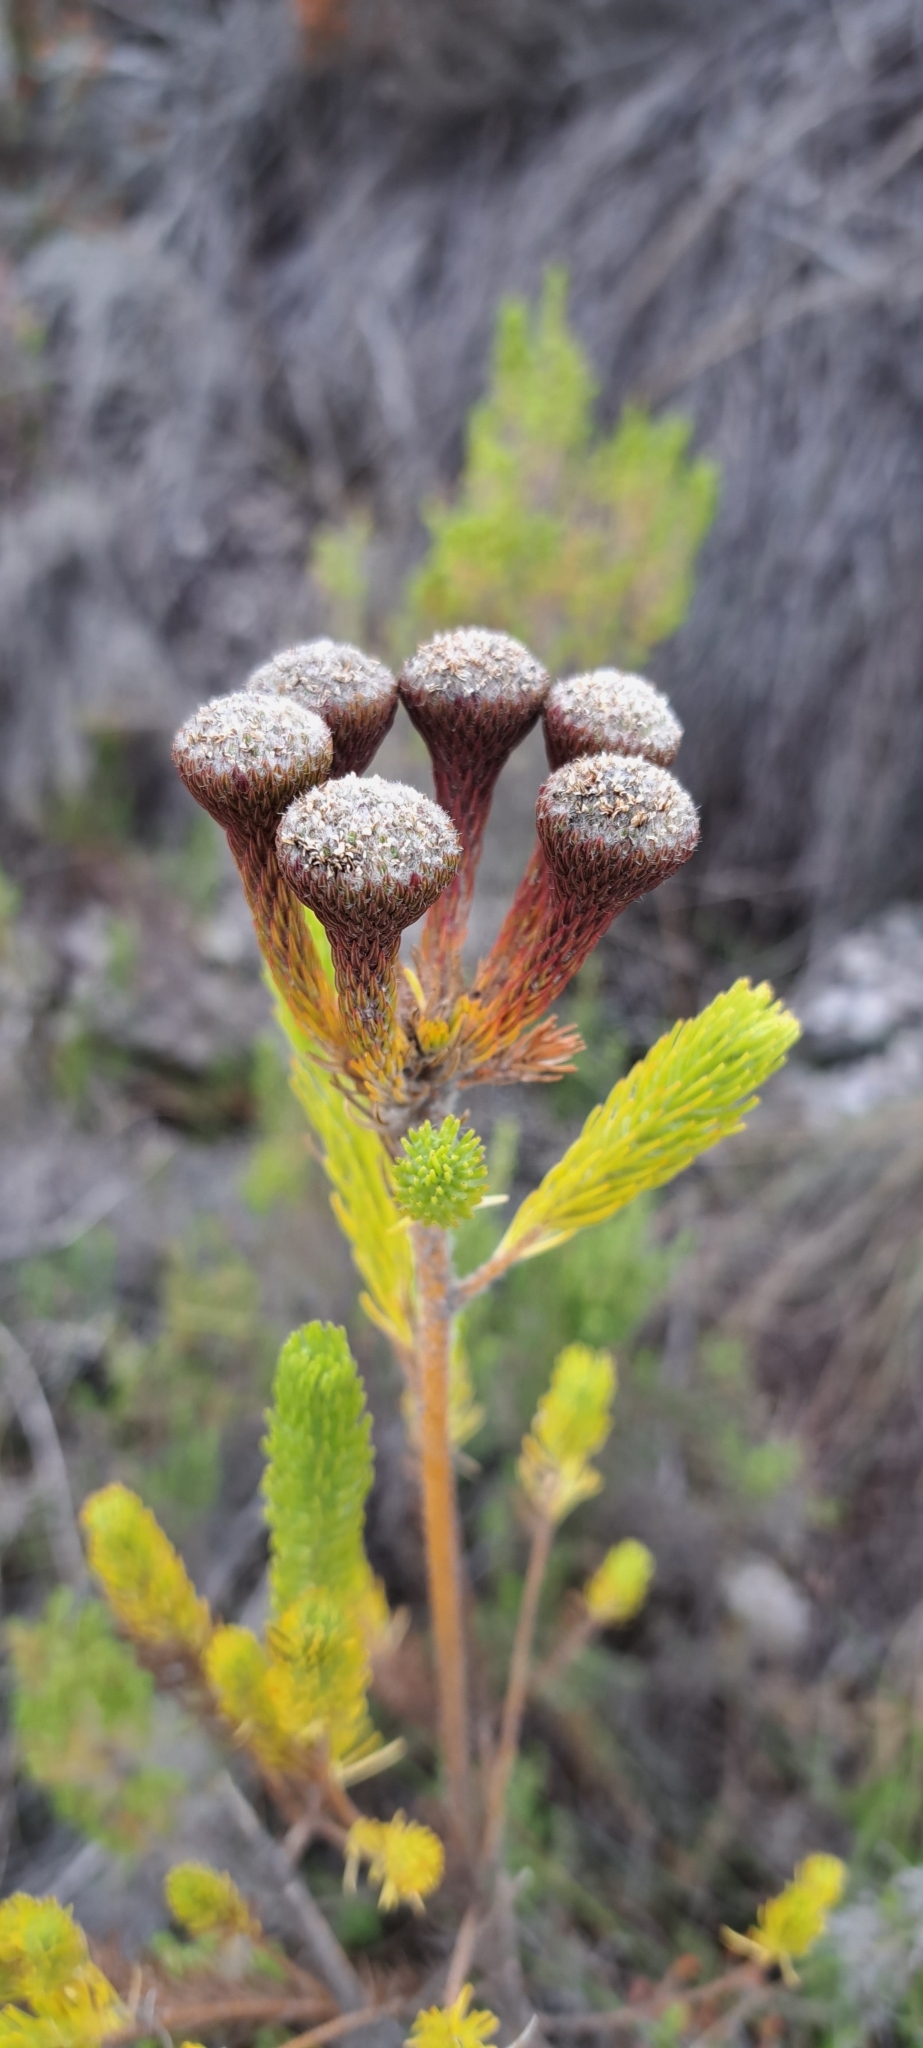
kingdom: Plantae
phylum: Tracheophyta
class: Magnoliopsida
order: Bruniales
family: Bruniaceae
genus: Berzelia
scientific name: Berzelia albiflora
